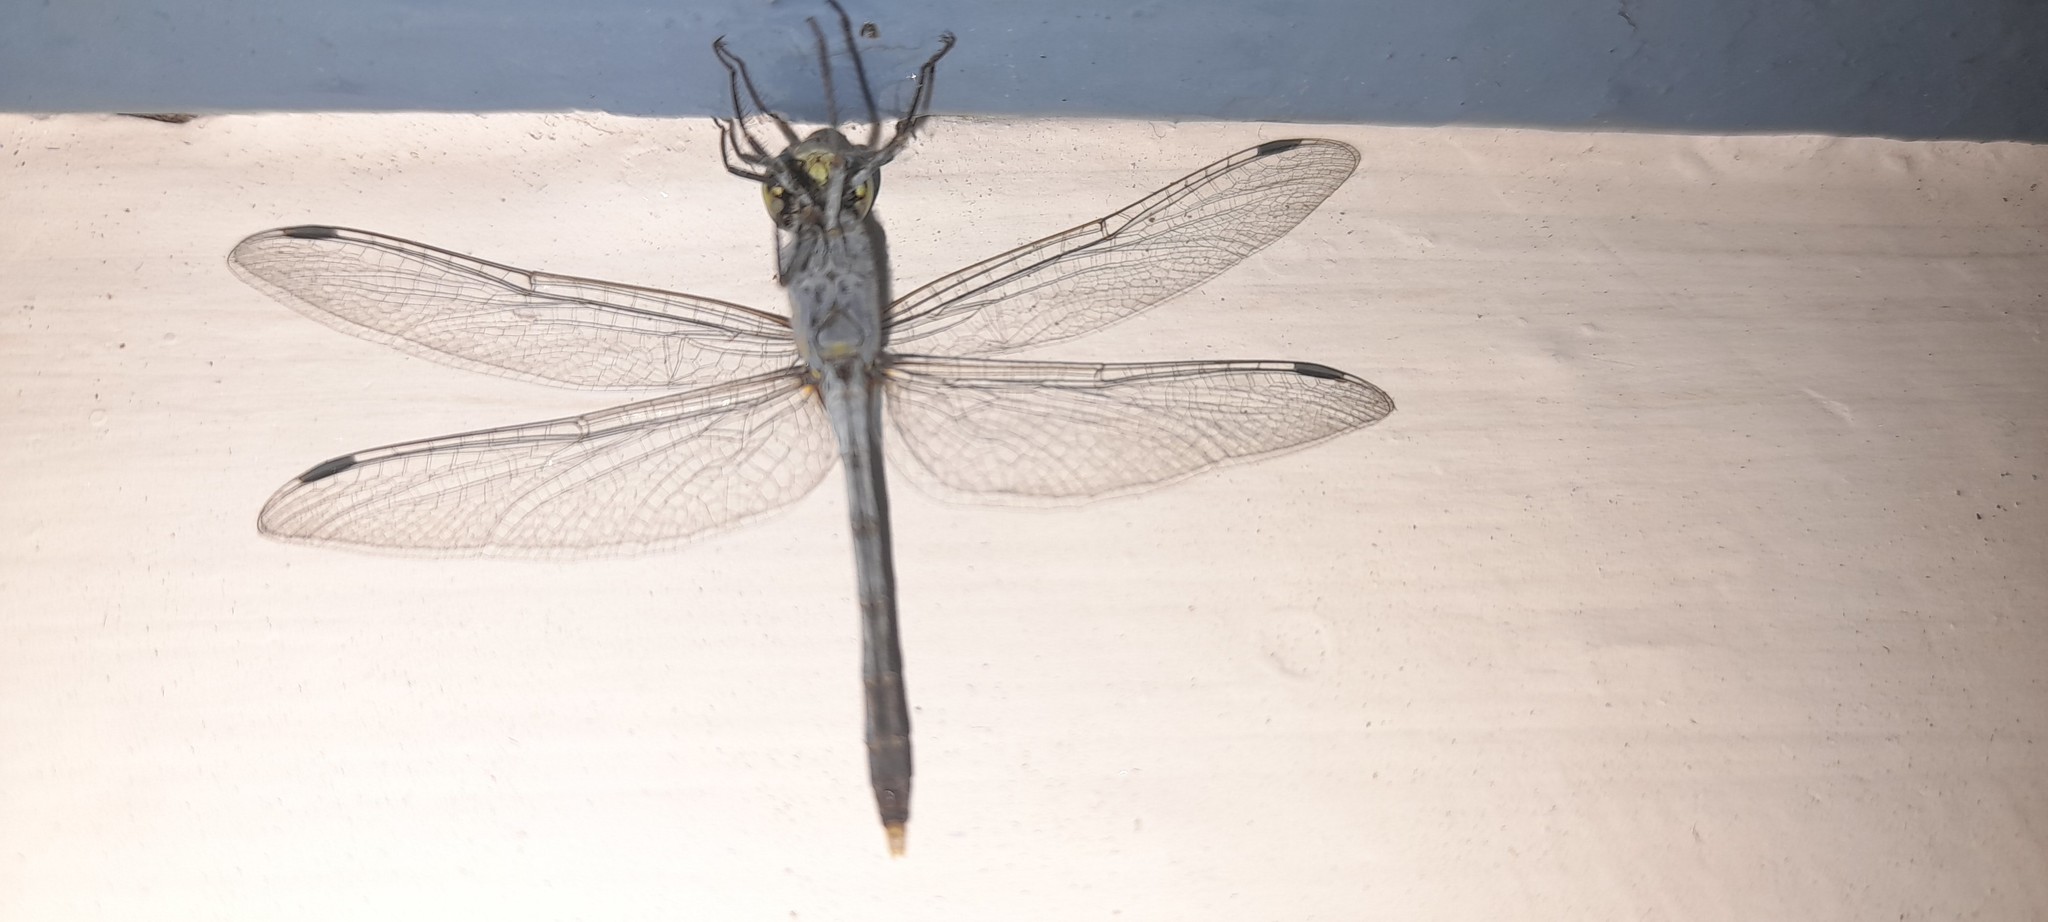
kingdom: Animalia
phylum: Arthropoda
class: Insecta
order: Odonata
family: Libellulidae
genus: Diplacodes
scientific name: Diplacodes trivialis
